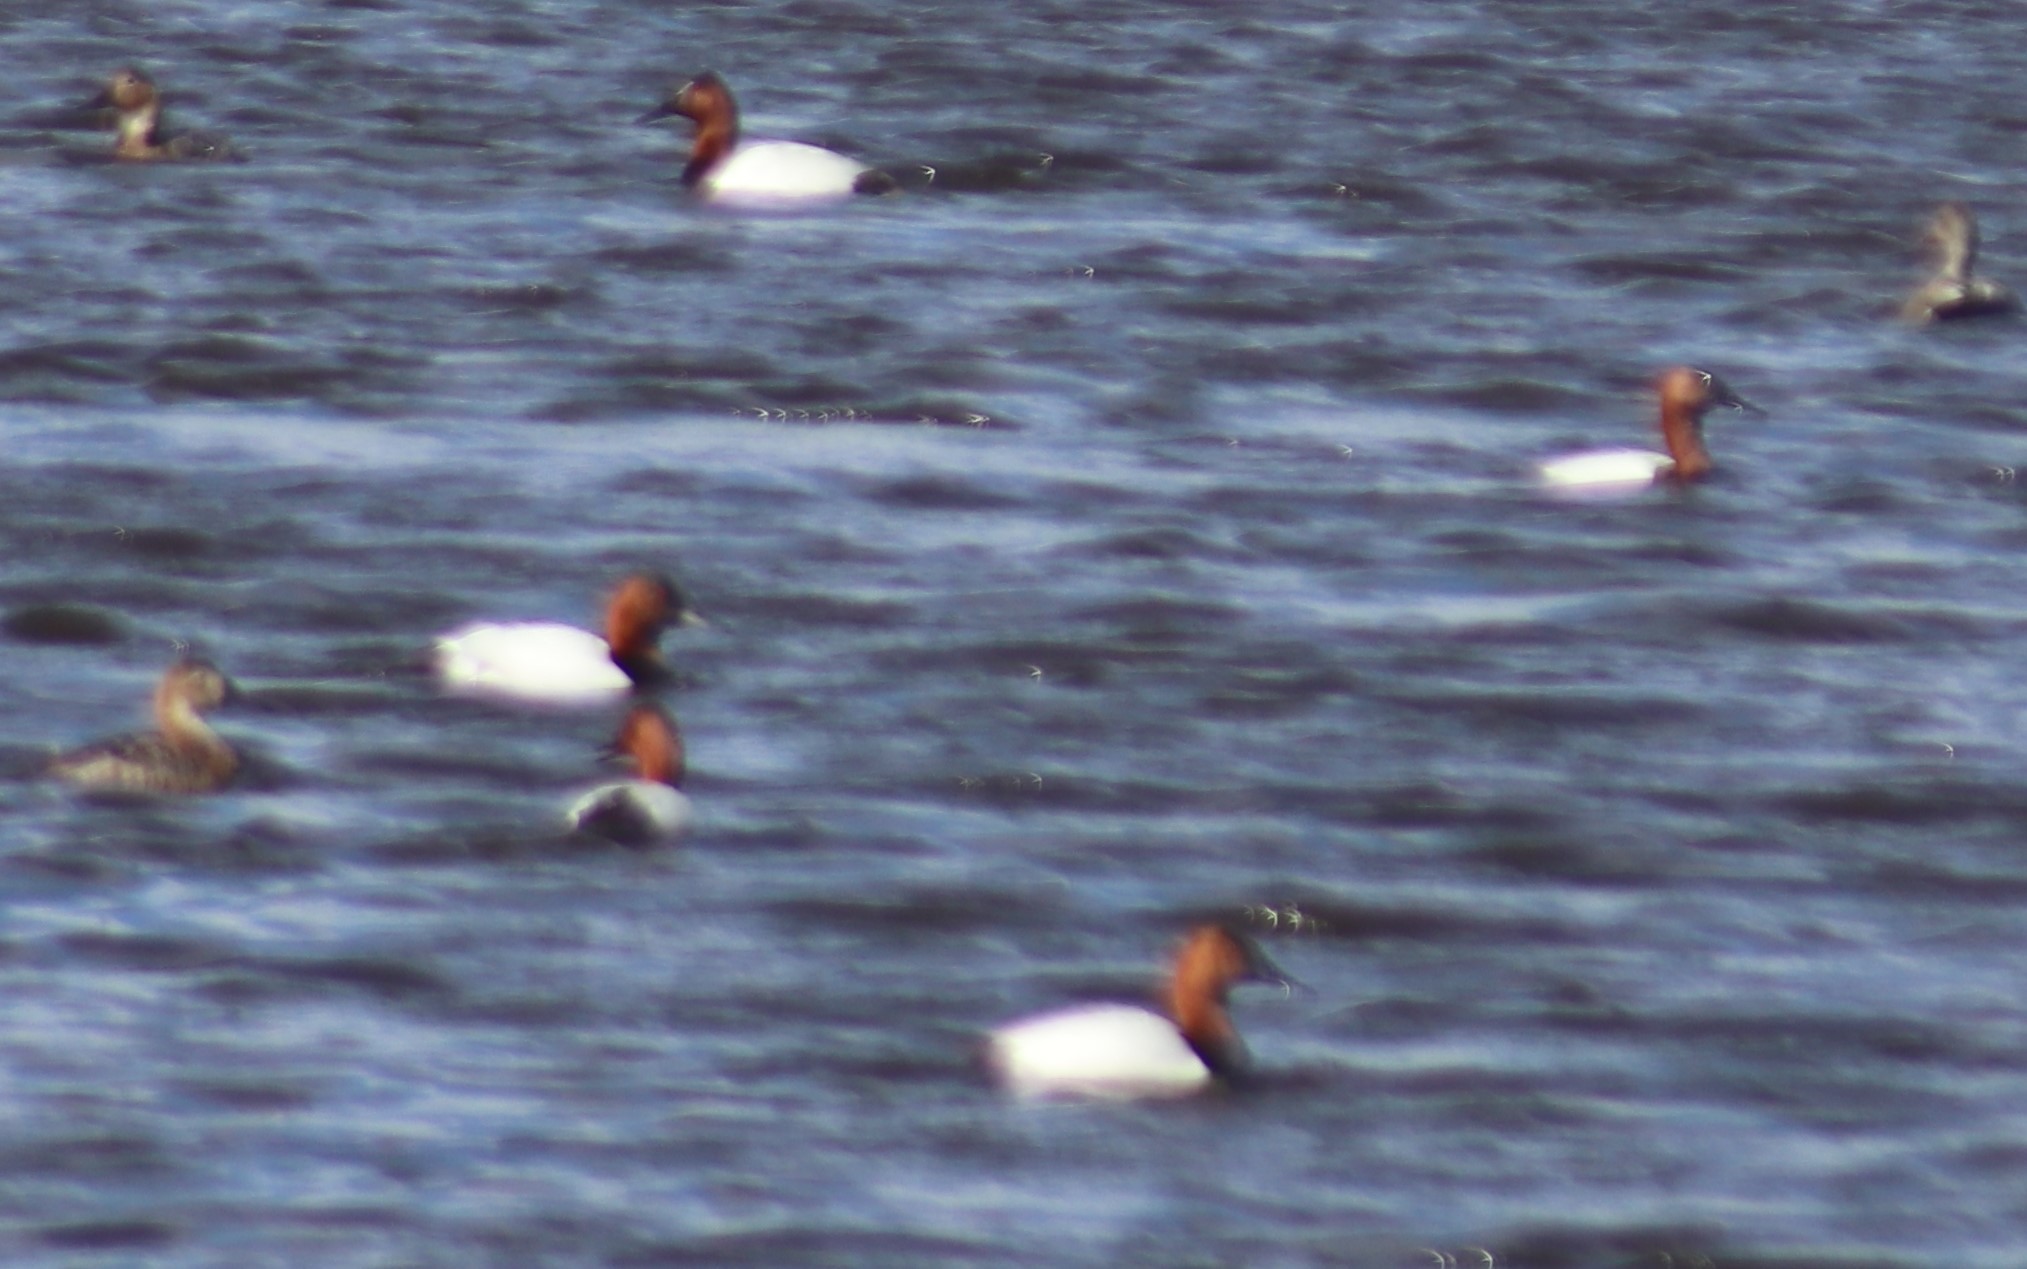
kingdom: Animalia
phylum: Chordata
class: Aves
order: Anseriformes
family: Anatidae
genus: Aythya
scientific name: Aythya valisineria
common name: Canvasback
